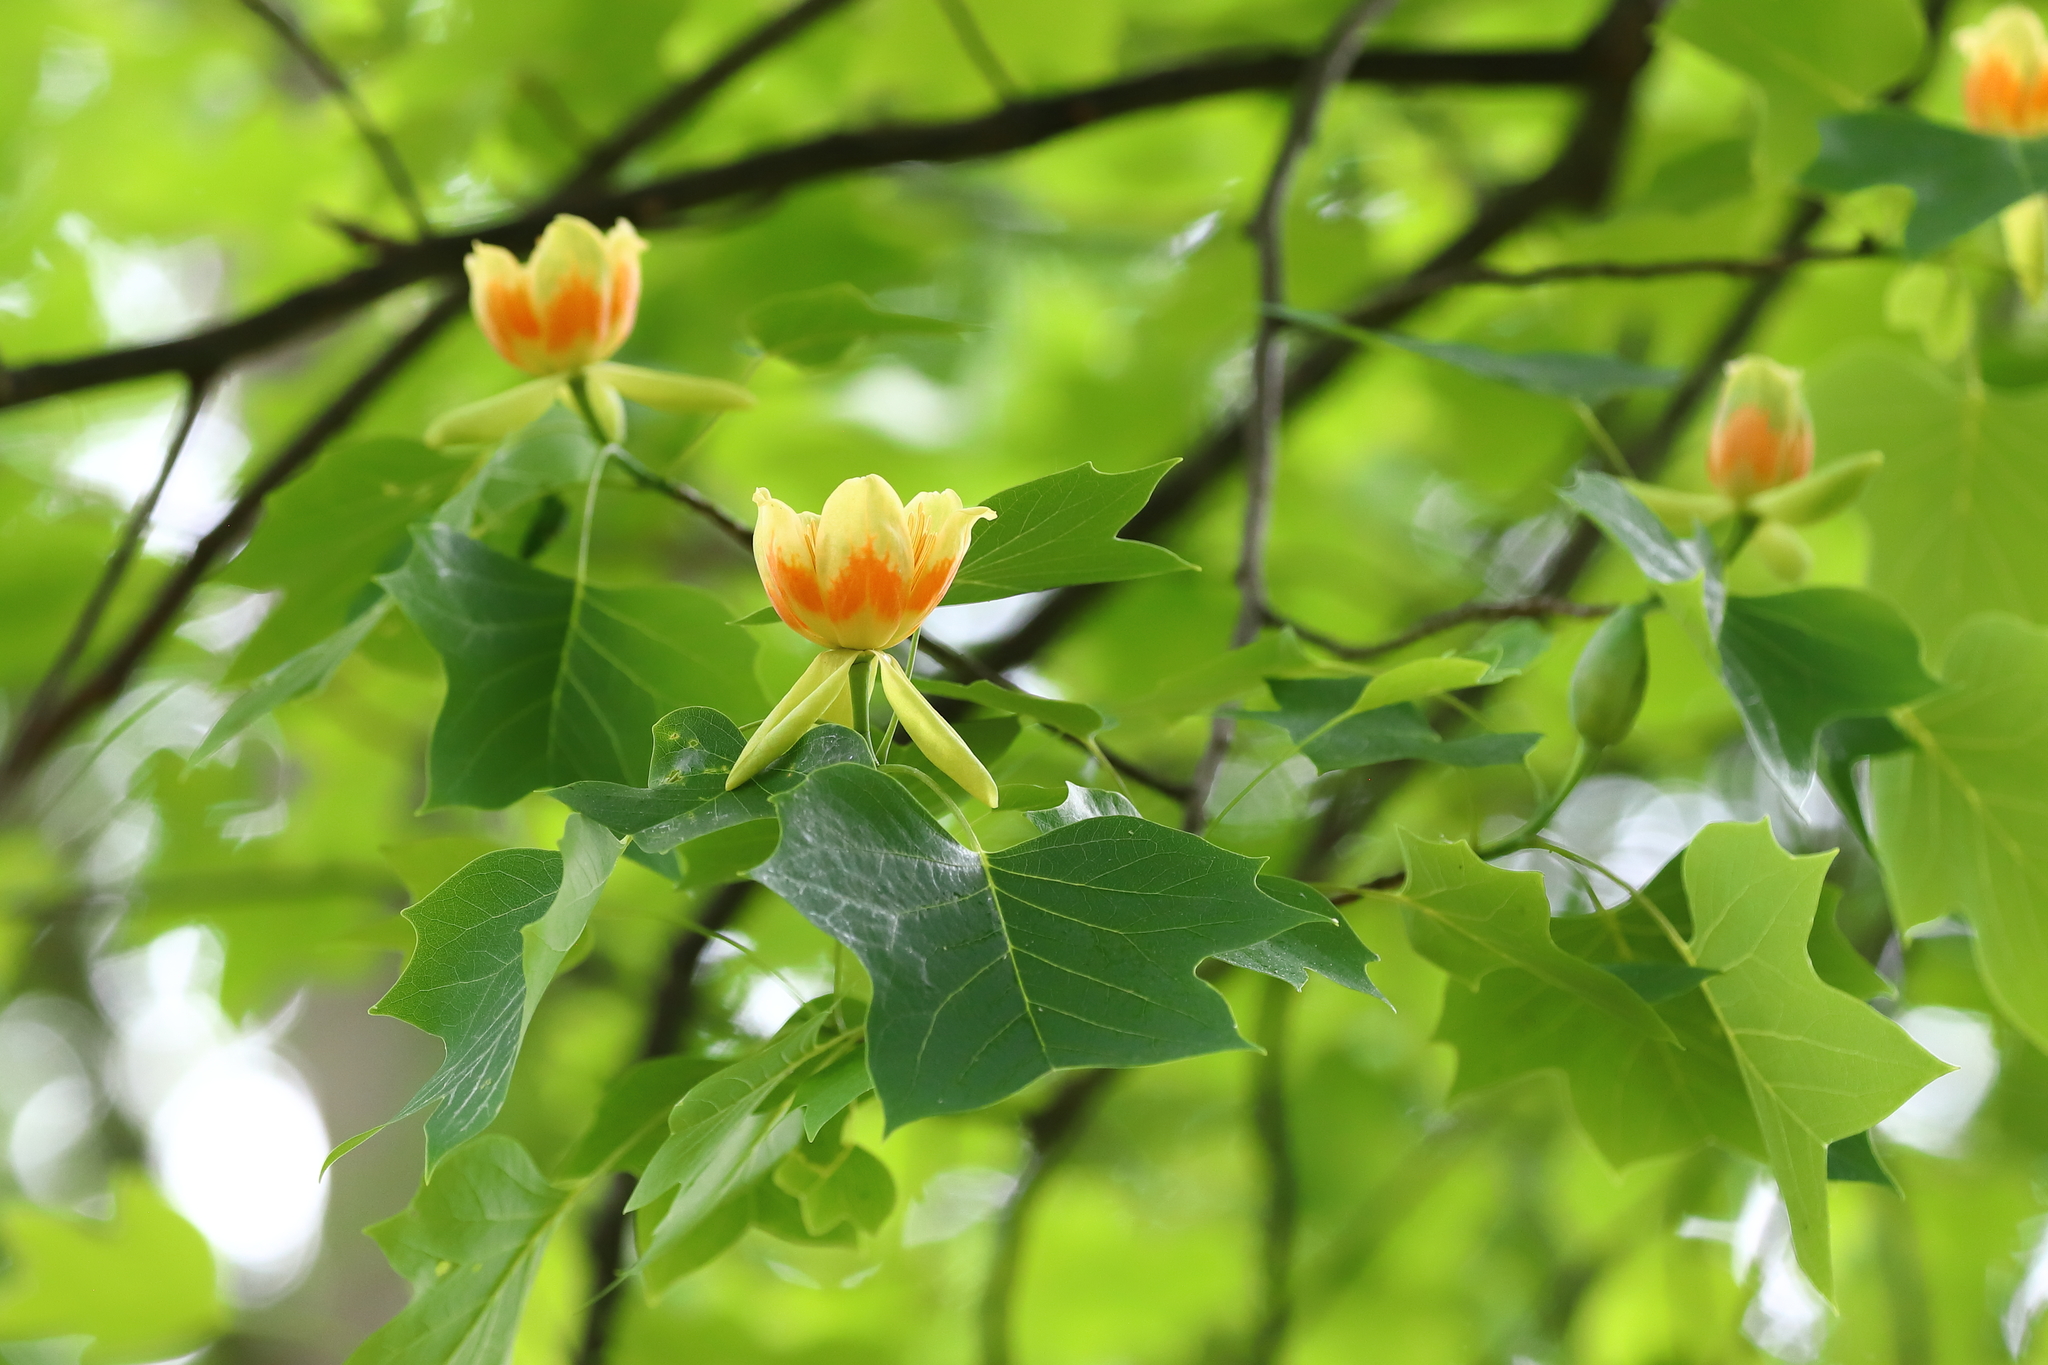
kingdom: Plantae
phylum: Tracheophyta
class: Magnoliopsida
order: Magnoliales
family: Magnoliaceae
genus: Liriodendron
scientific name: Liriodendron tulipifera
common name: Tulip tree
